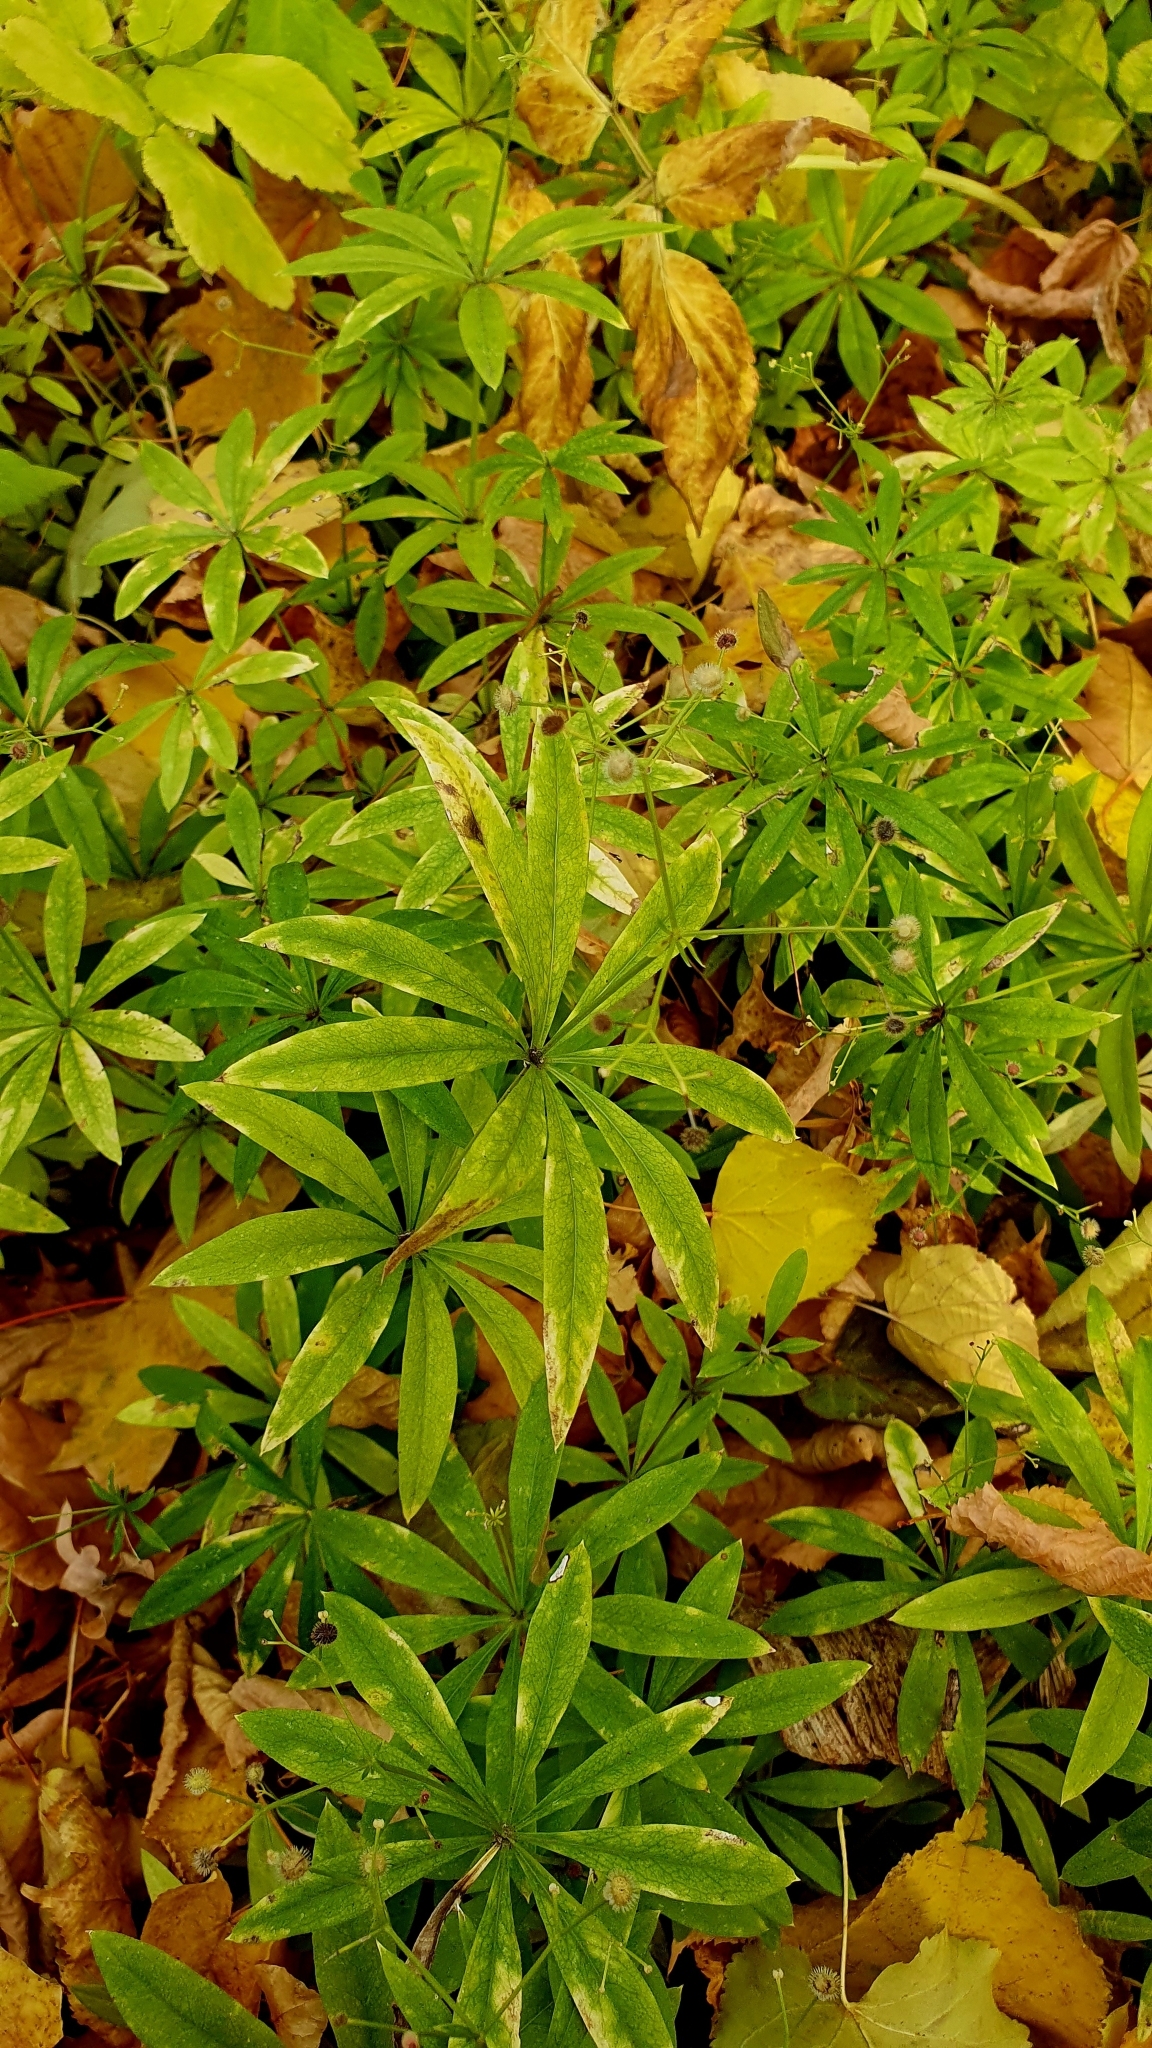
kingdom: Plantae
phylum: Tracheophyta
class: Magnoliopsida
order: Gentianales
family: Rubiaceae
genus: Galium
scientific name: Galium odoratum
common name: Sweet woodruff
